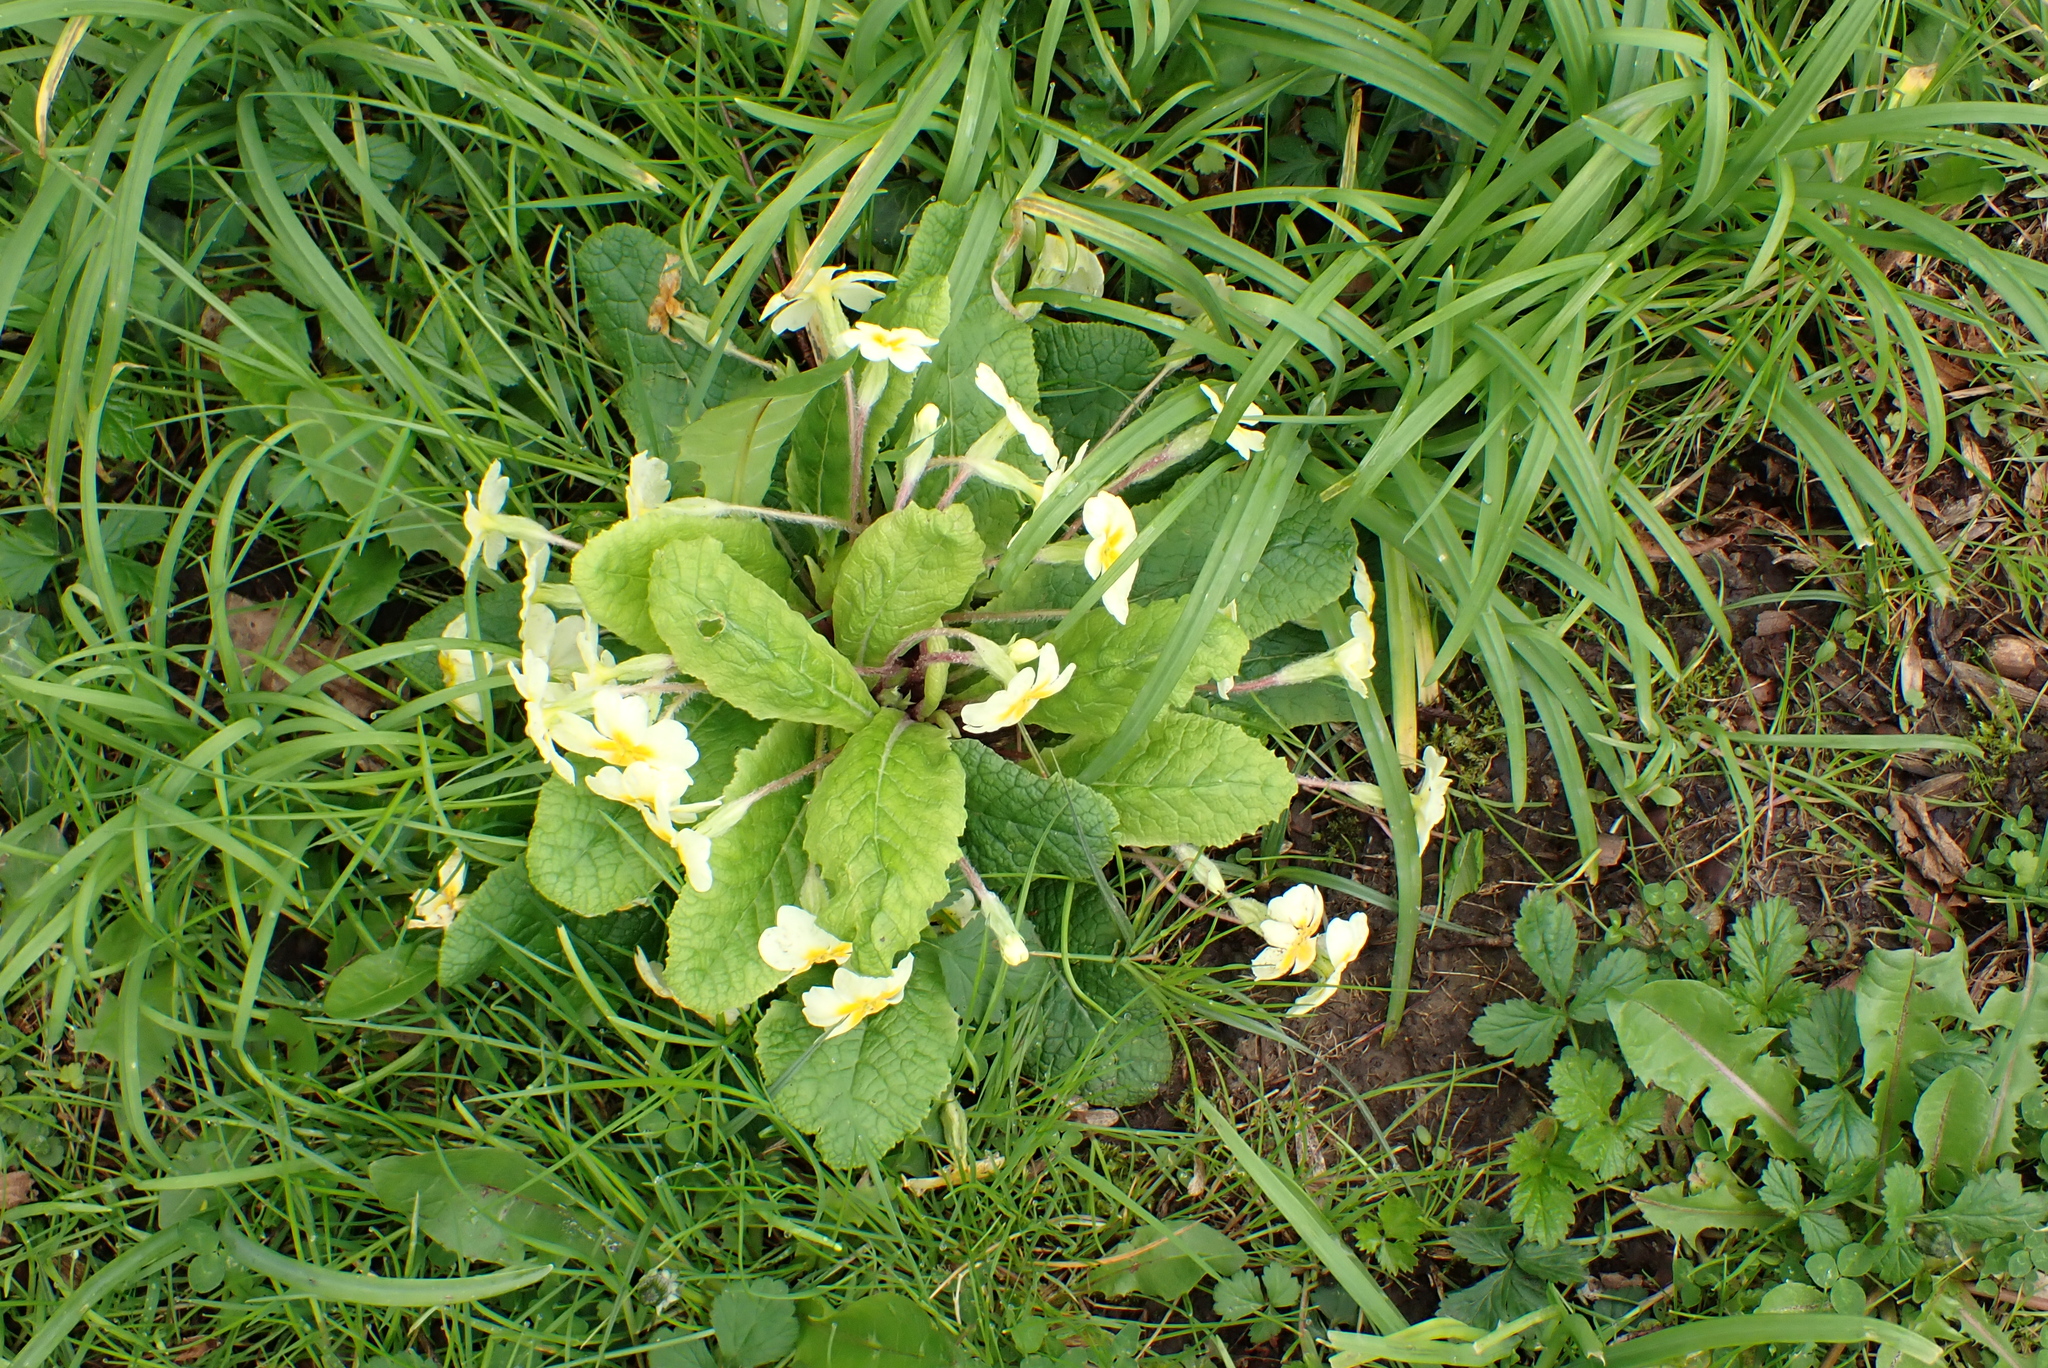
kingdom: Plantae
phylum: Tracheophyta
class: Magnoliopsida
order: Ericales
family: Primulaceae
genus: Primula
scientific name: Primula vulgaris
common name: Primrose
